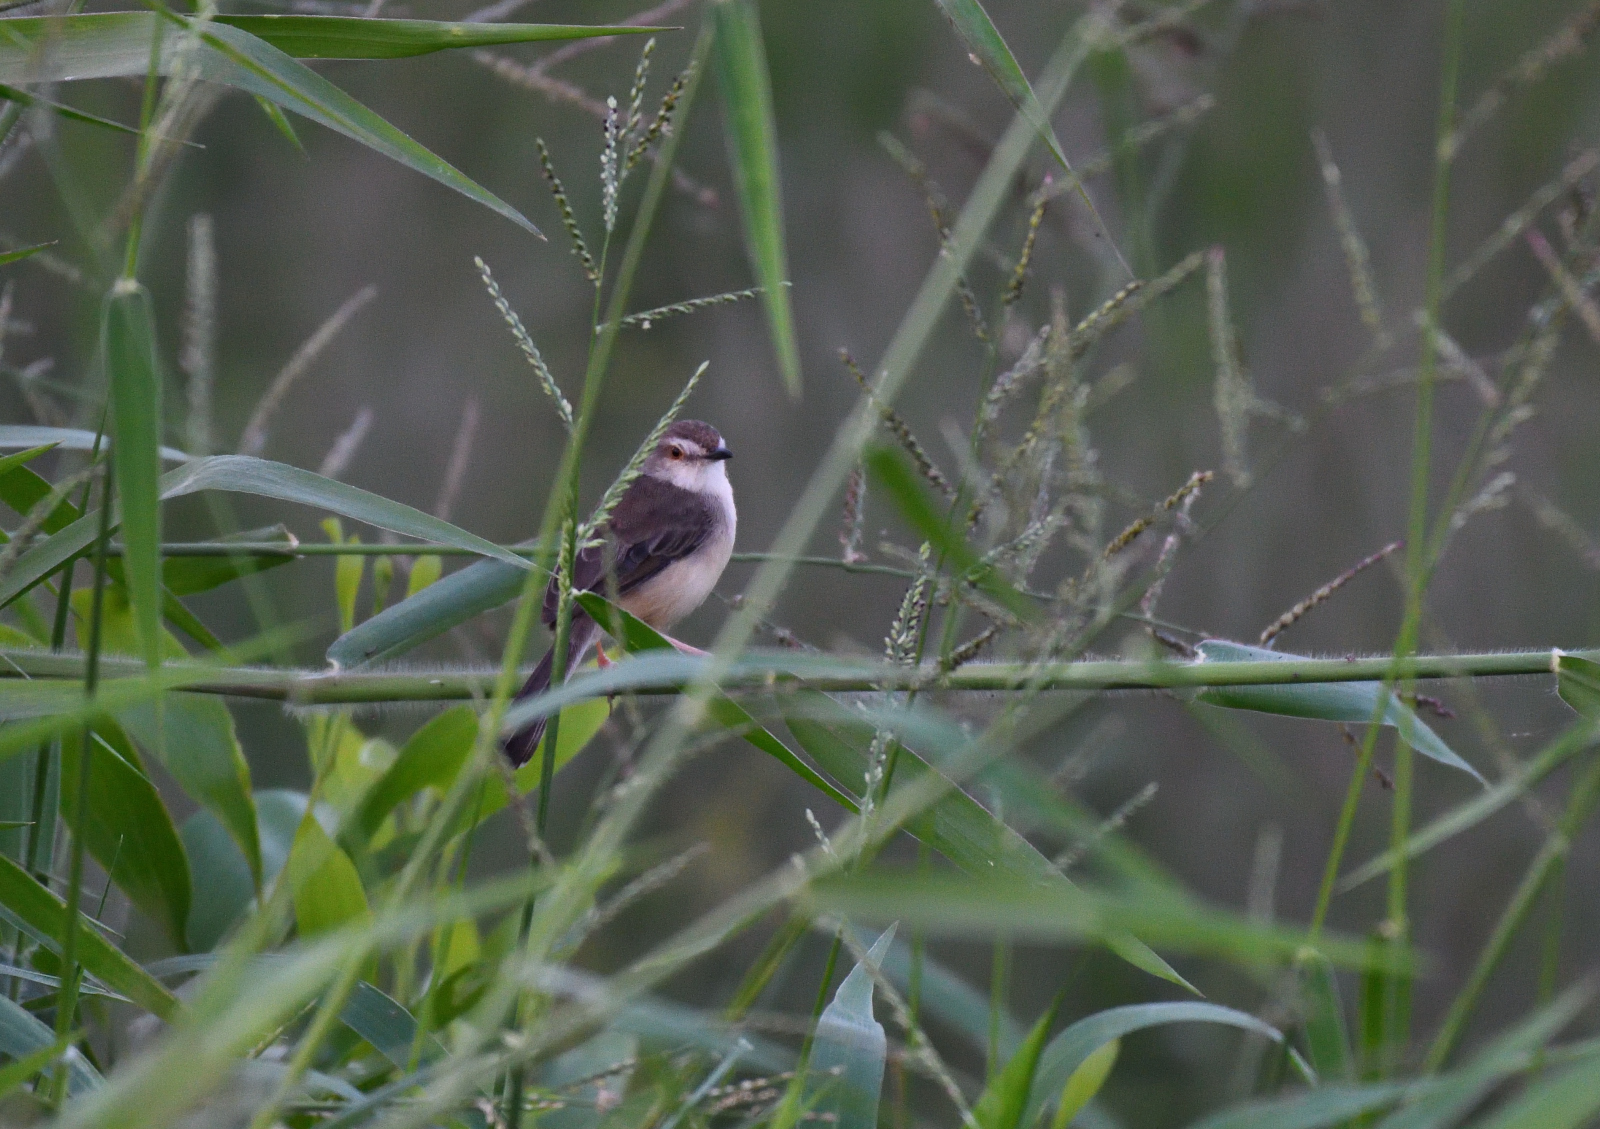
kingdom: Animalia
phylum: Chordata
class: Aves
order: Passeriformes
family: Cisticolidae
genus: Prinia
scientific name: Prinia inornata
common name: Plain prinia
